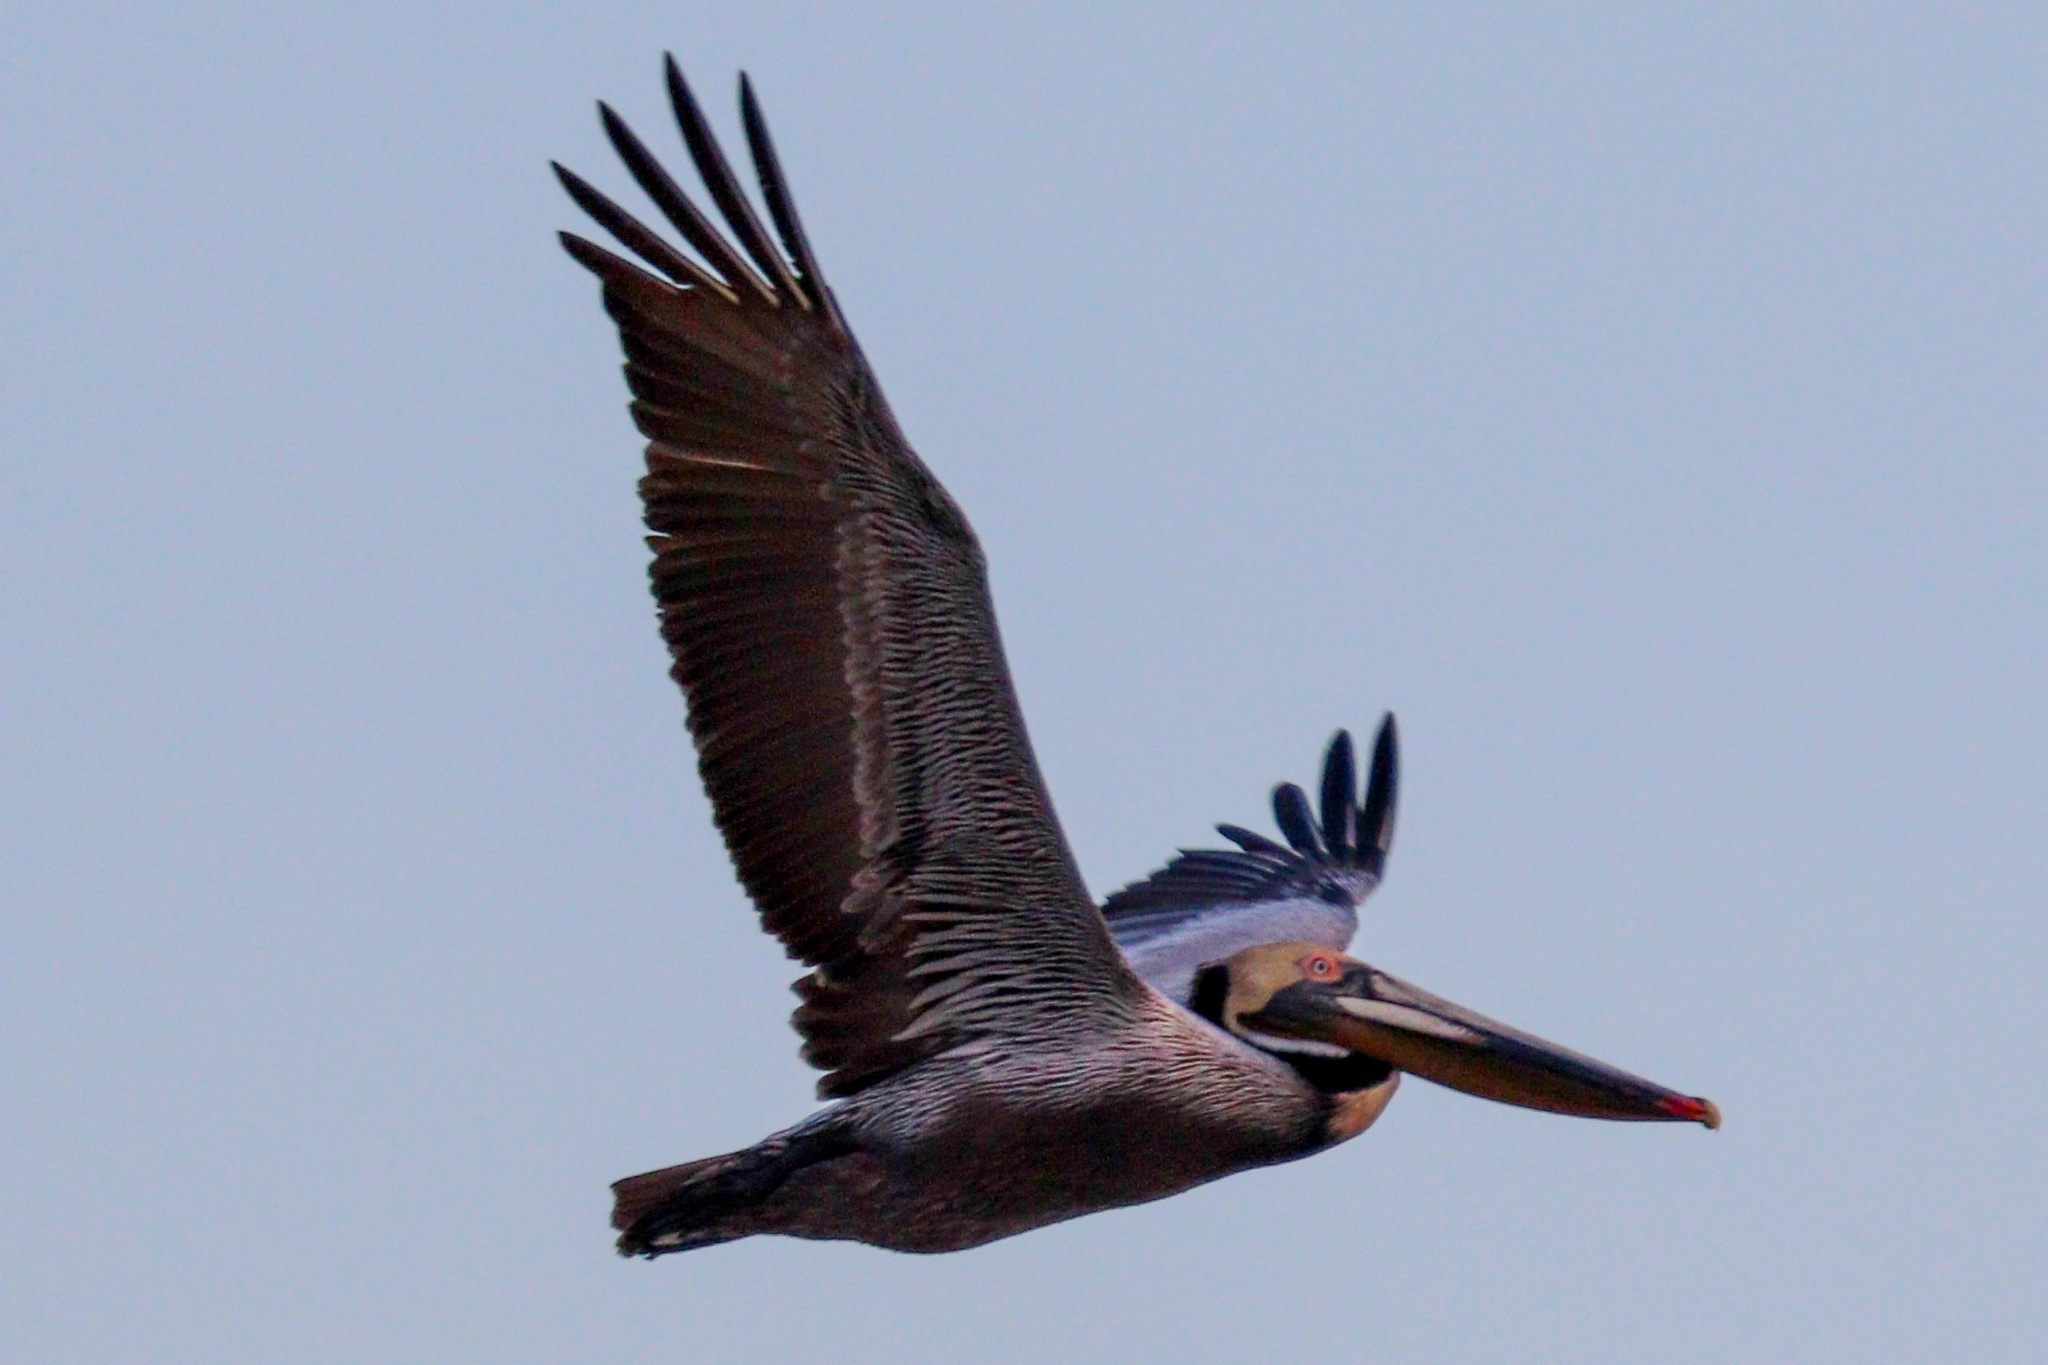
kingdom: Animalia
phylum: Chordata
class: Aves
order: Pelecaniformes
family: Pelecanidae
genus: Pelecanus
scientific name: Pelecanus occidentalis
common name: Brown pelican
